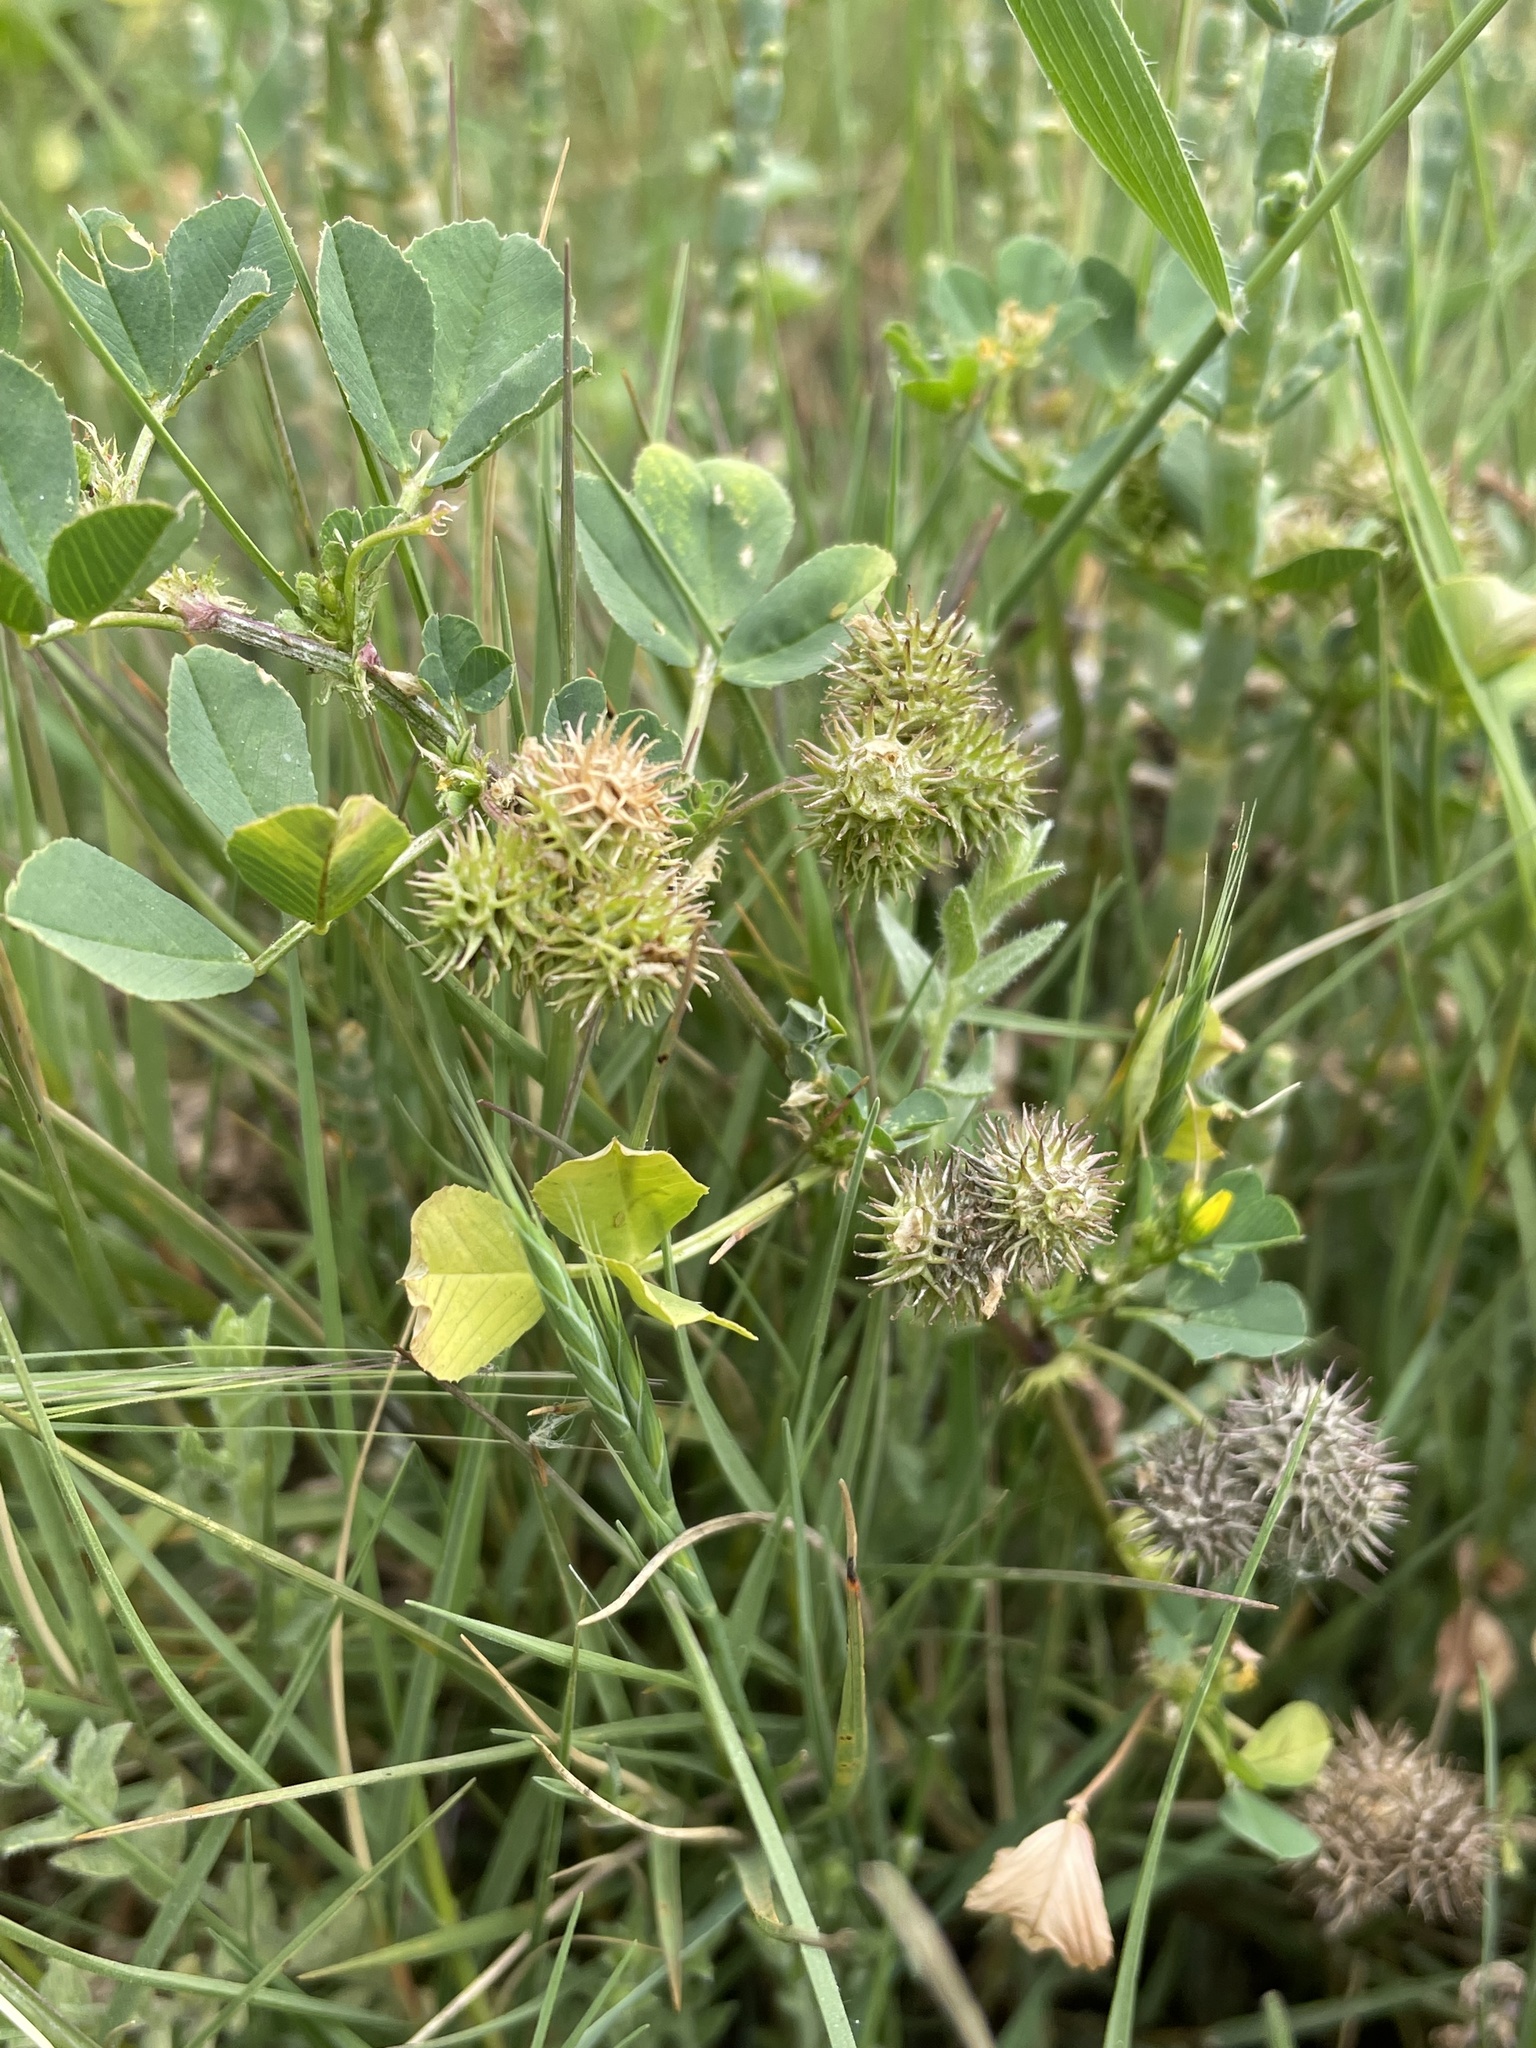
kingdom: Plantae
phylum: Tracheophyta
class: Magnoliopsida
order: Fabales
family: Fabaceae
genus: Medicago
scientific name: Medicago polymorpha
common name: Burclover
